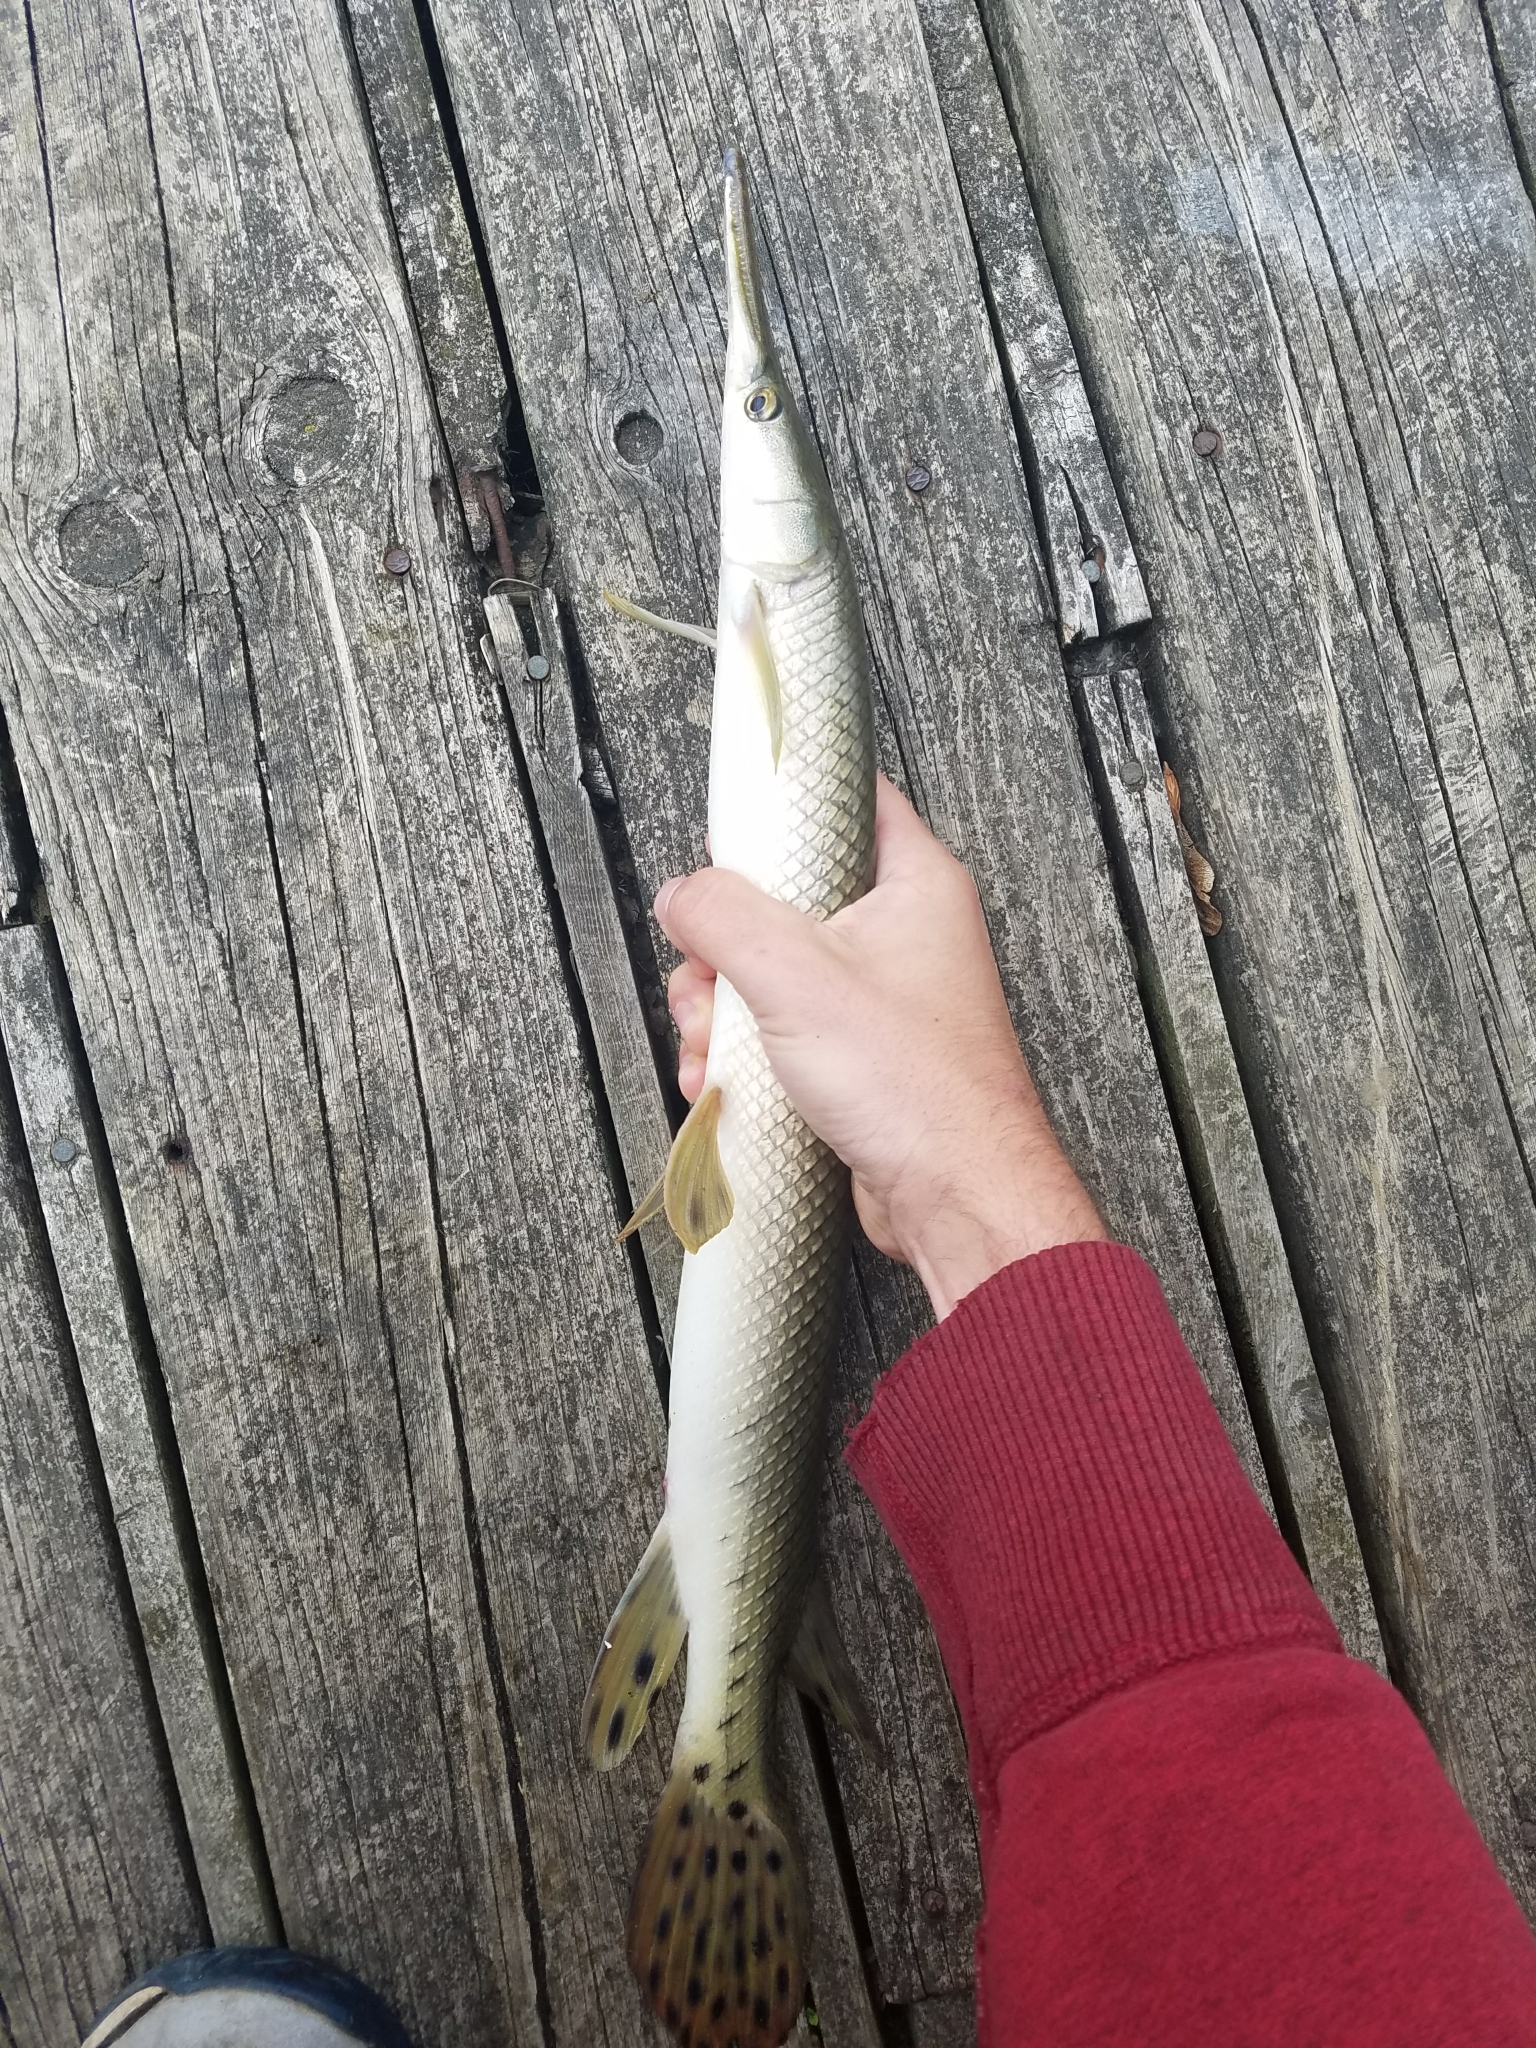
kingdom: Animalia
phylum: Chordata
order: Lepisosteiformes
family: Lepisosteidae
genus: Lepisosteus
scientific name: Lepisosteus platostomus
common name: Shortnose gar
